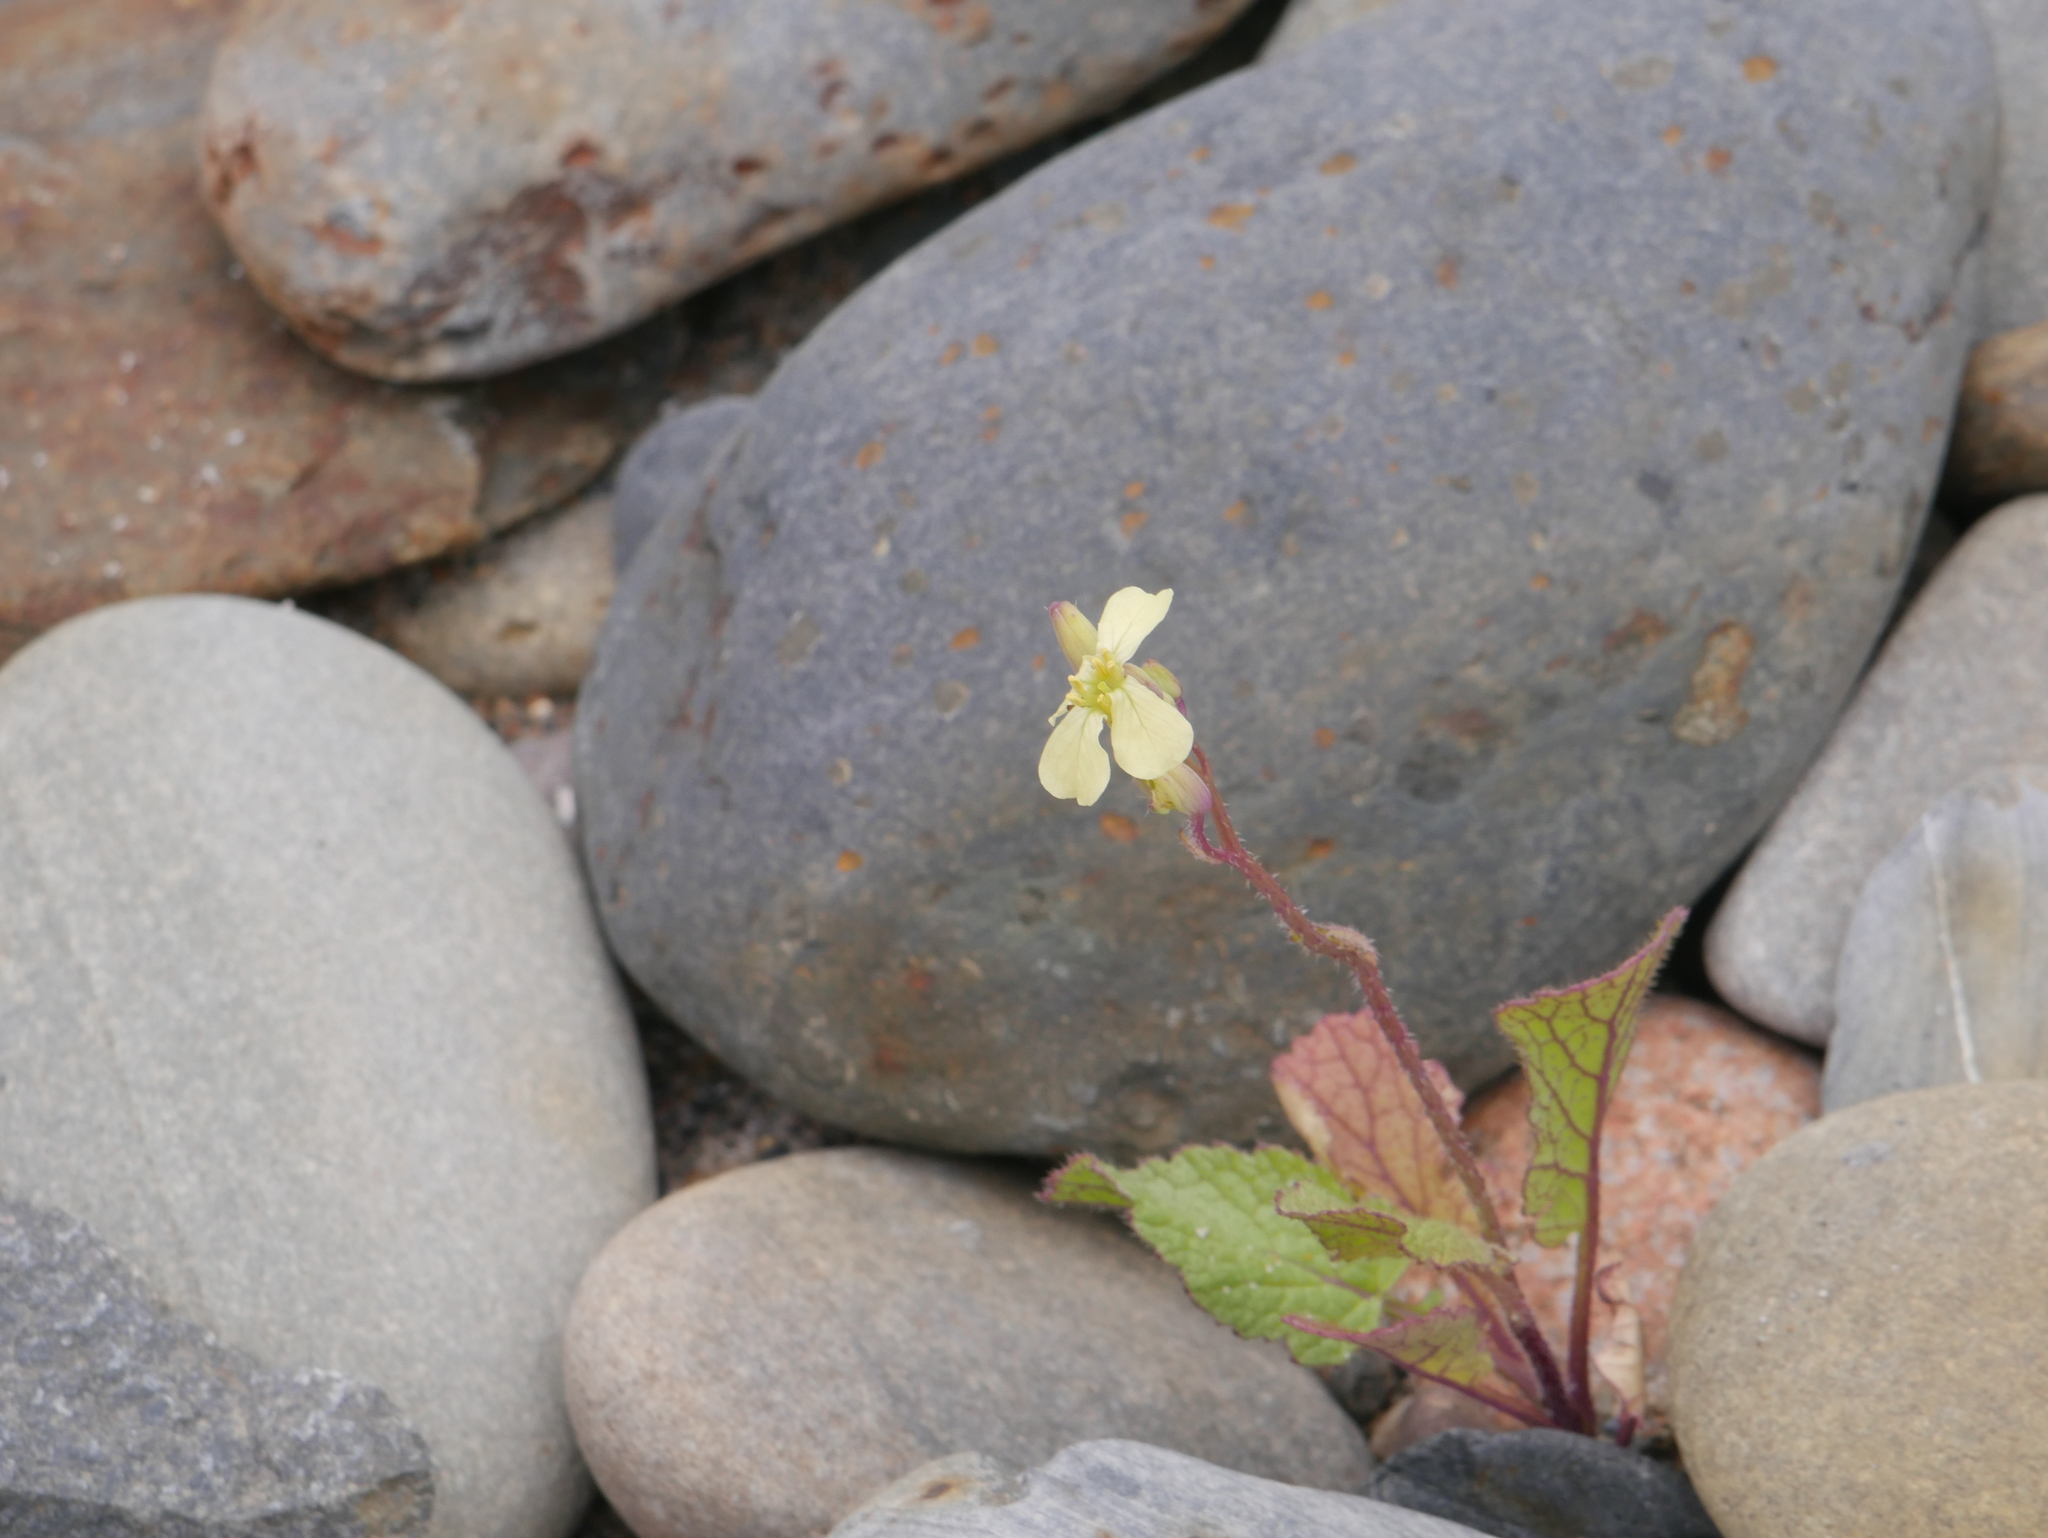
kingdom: Plantae
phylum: Tracheophyta
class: Magnoliopsida
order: Brassicales
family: Brassicaceae
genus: Raphanus
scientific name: Raphanus raphanistrum
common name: Wild radish
